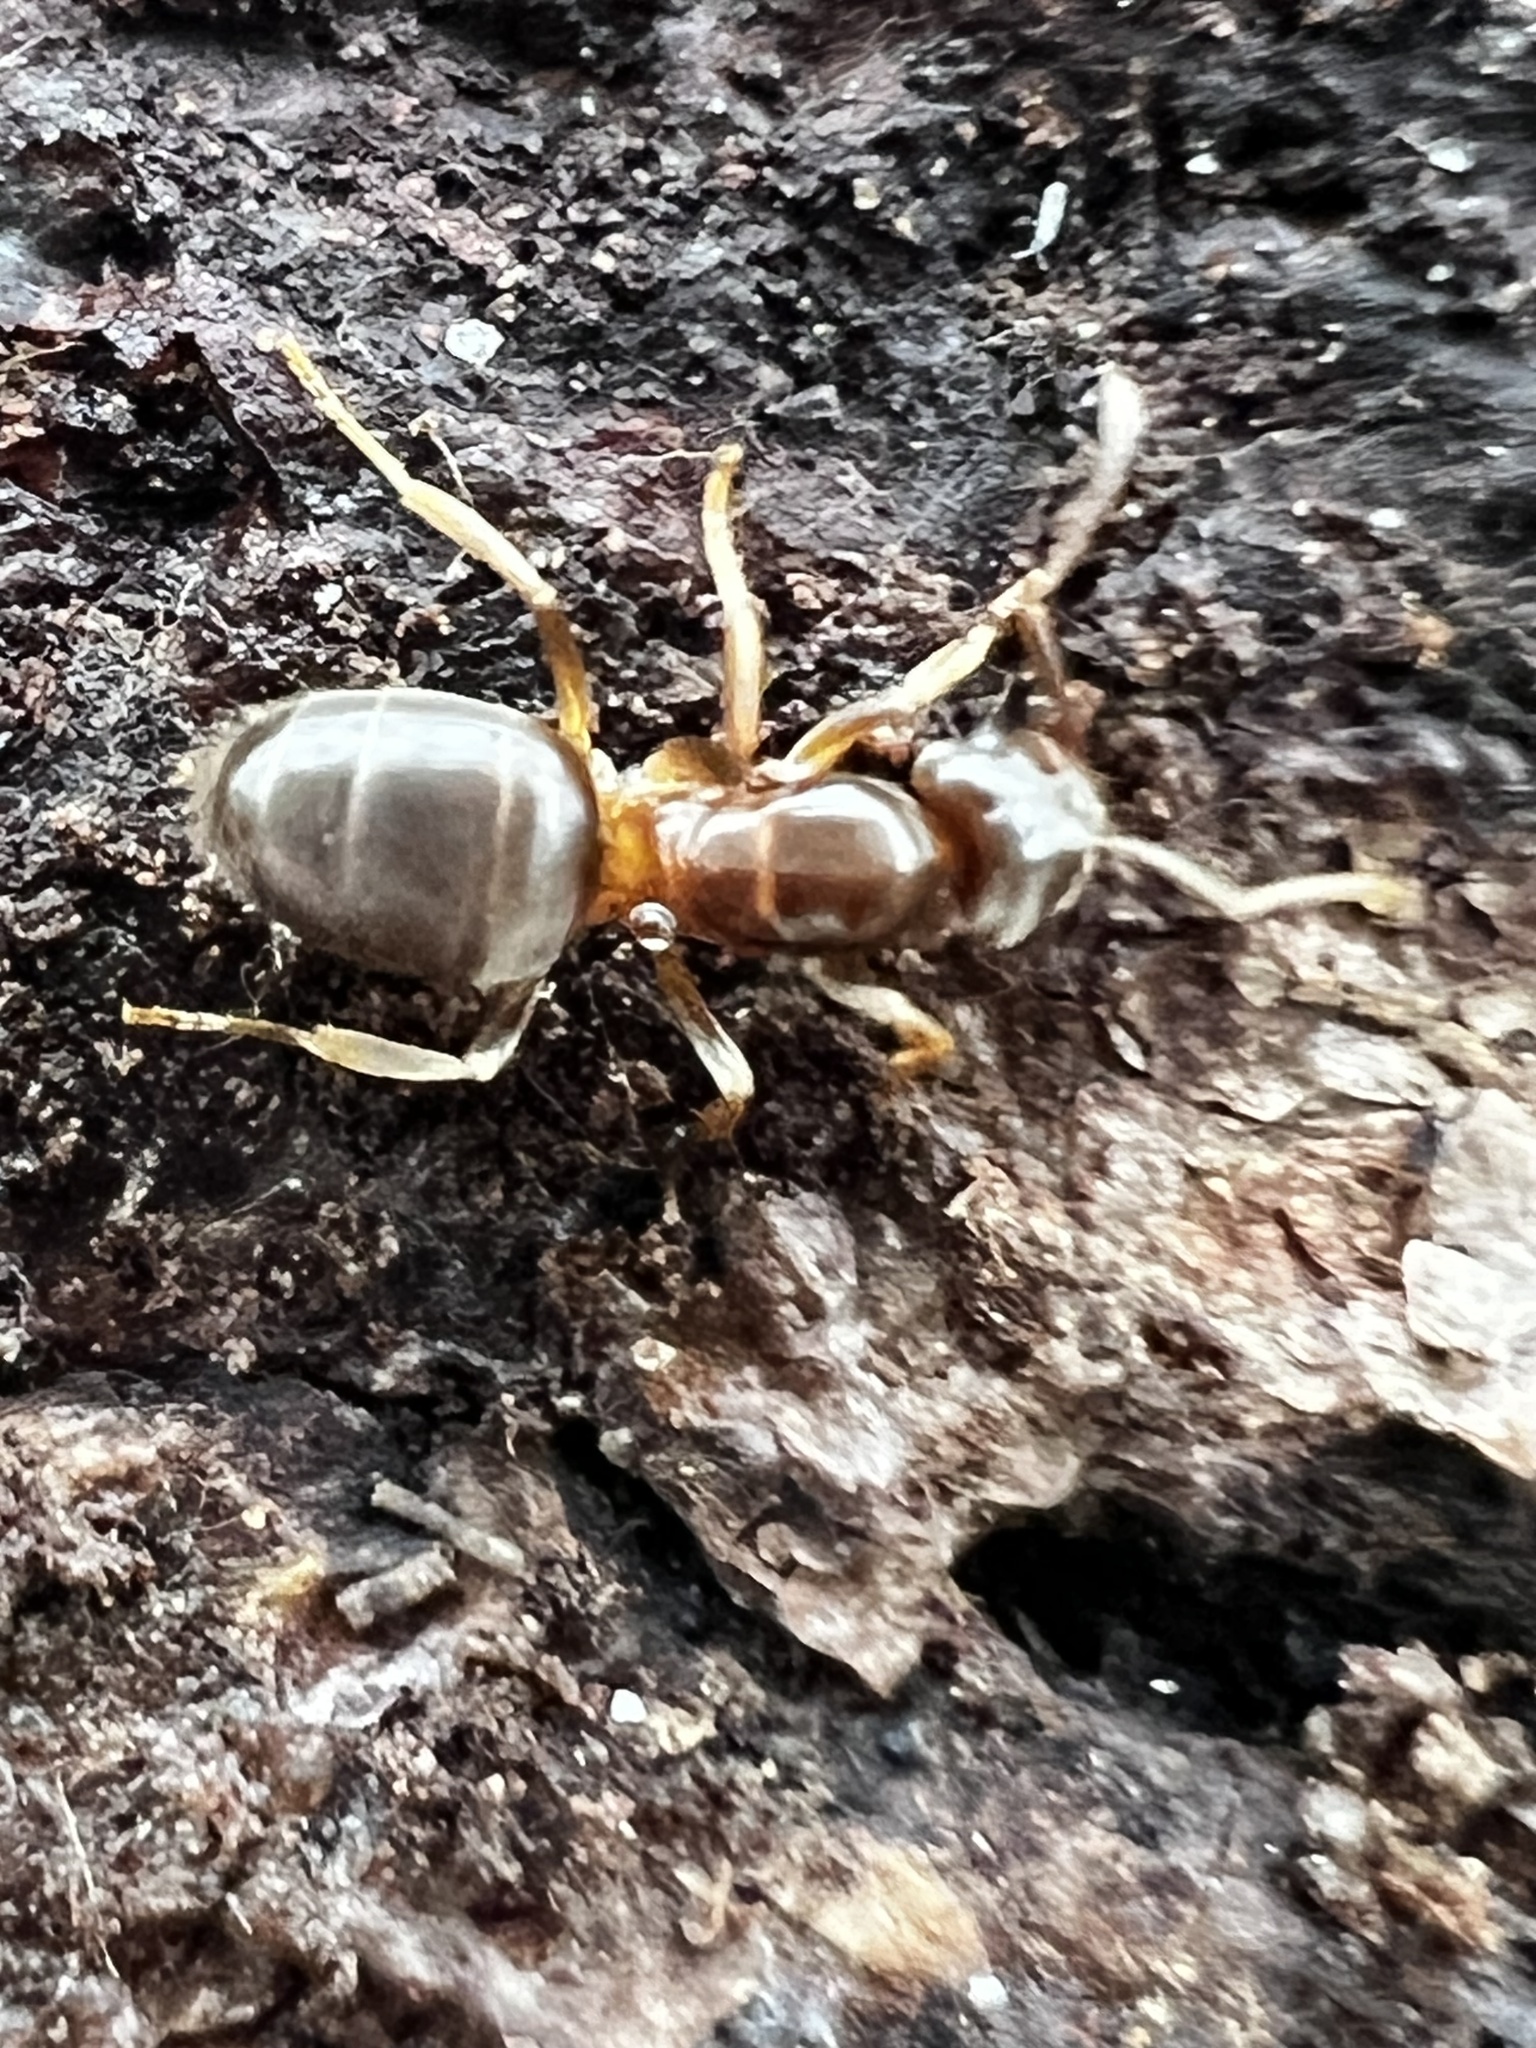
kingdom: Animalia
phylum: Arthropoda
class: Insecta
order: Hymenoptera
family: Formicidae
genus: Lasius
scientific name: Lasius aphidicola
